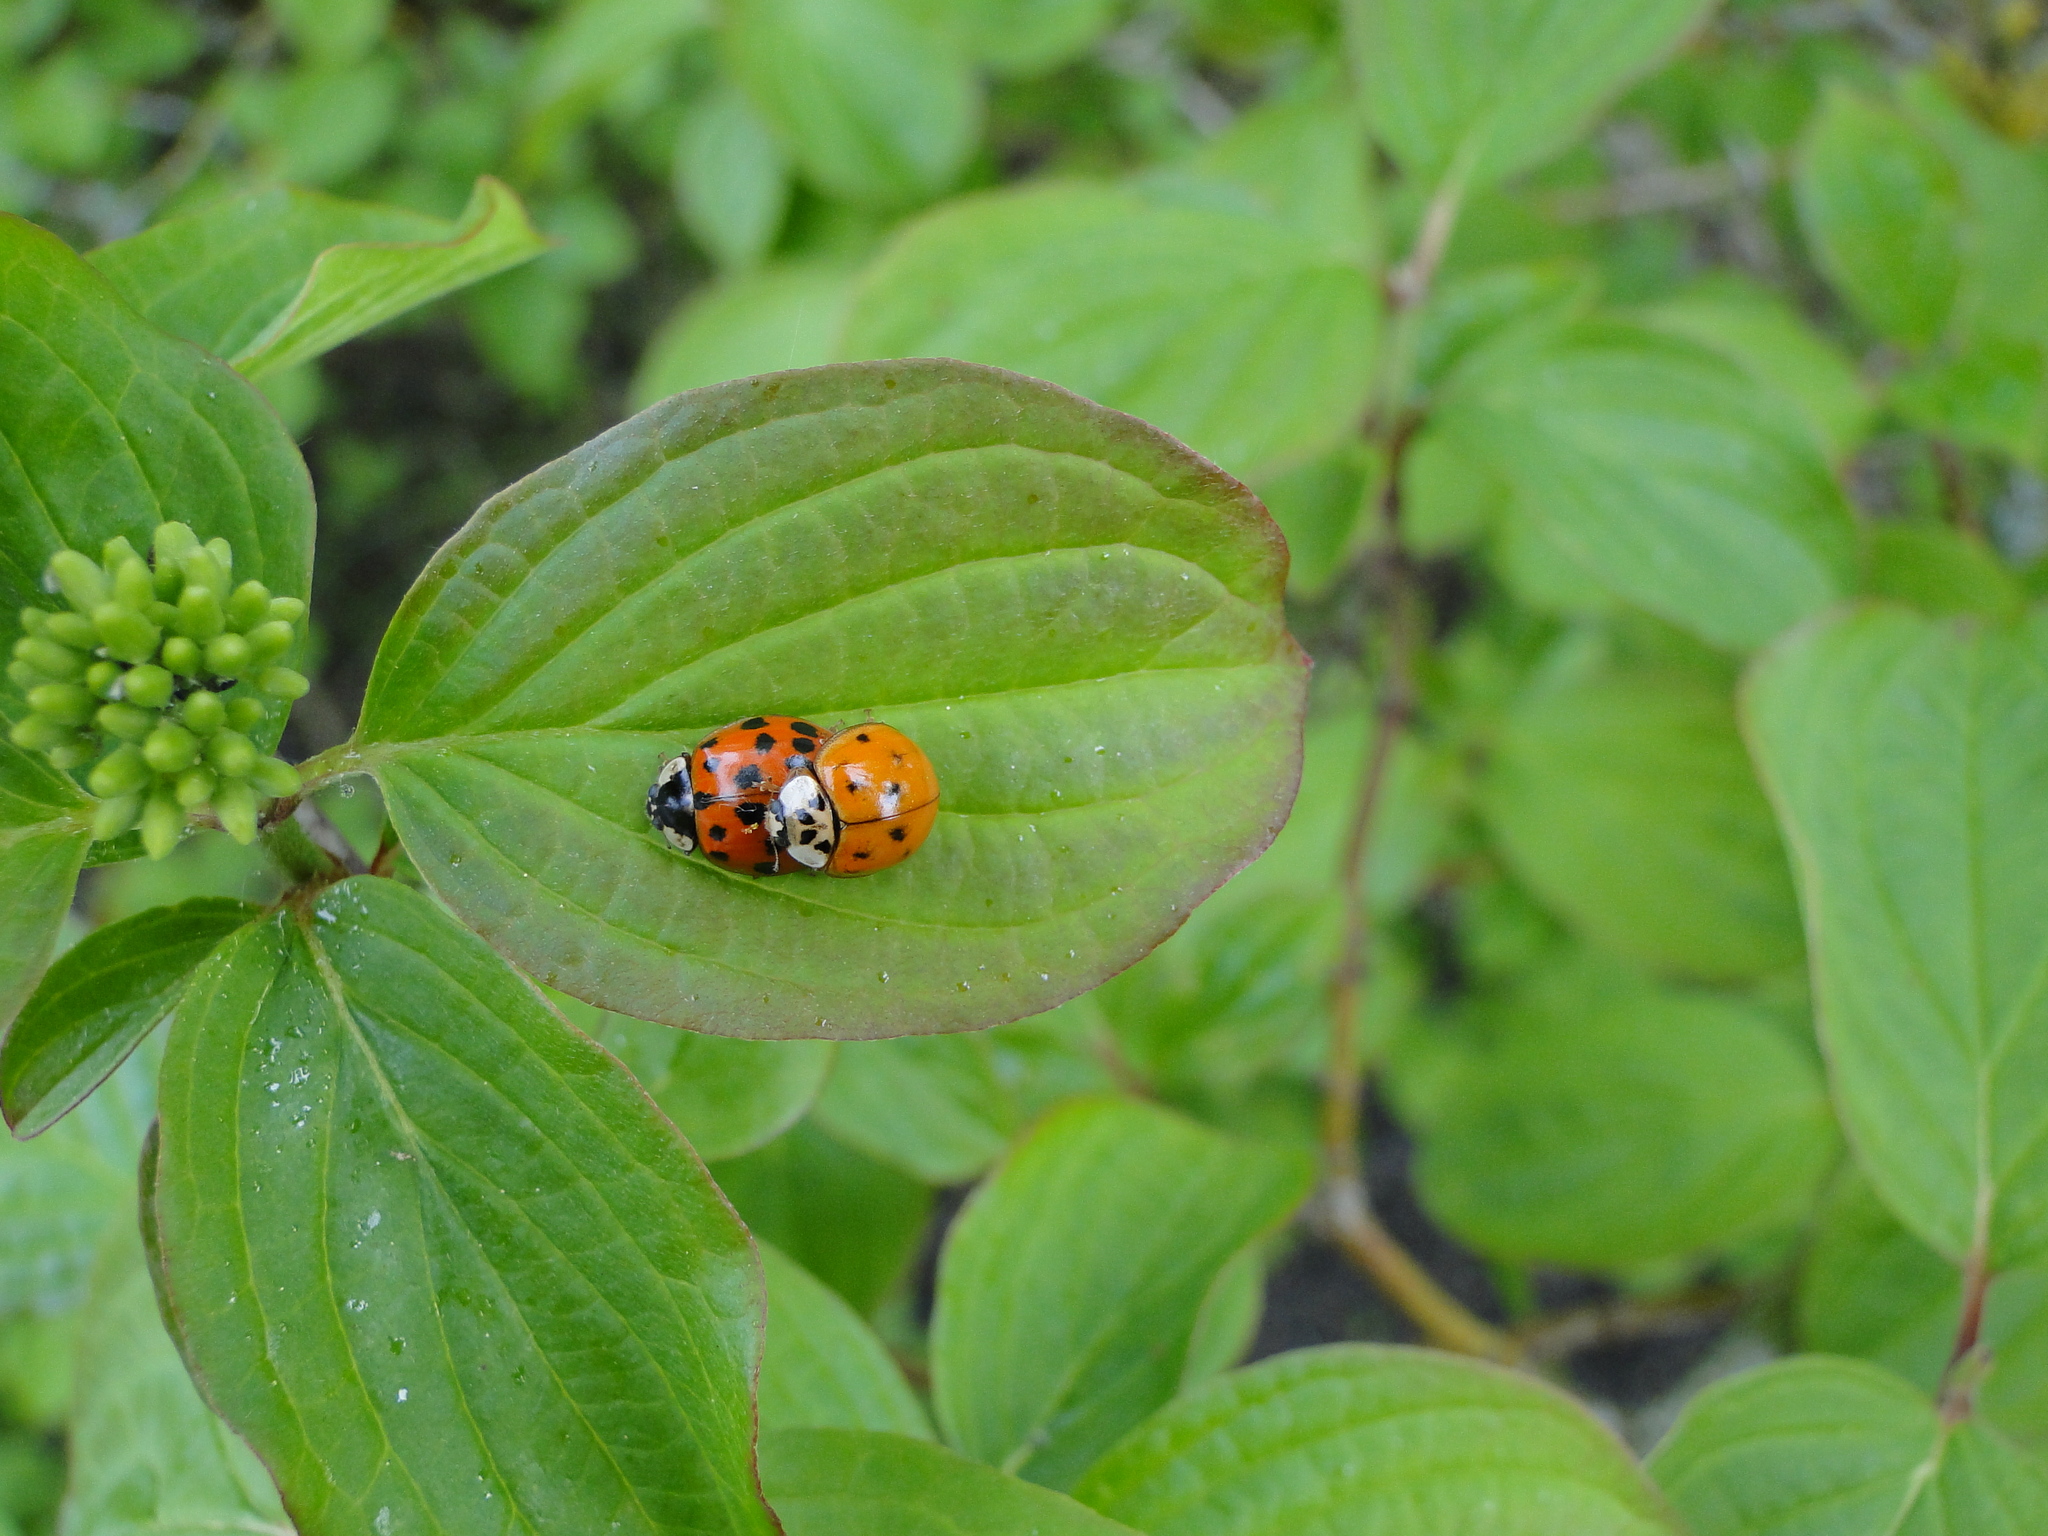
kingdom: Animalia
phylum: Arthropoda
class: Insecta
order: Coleoptera
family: Coccinellidae
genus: Harmonia
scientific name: Harmonia axyridis
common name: Harlequin ladybird
